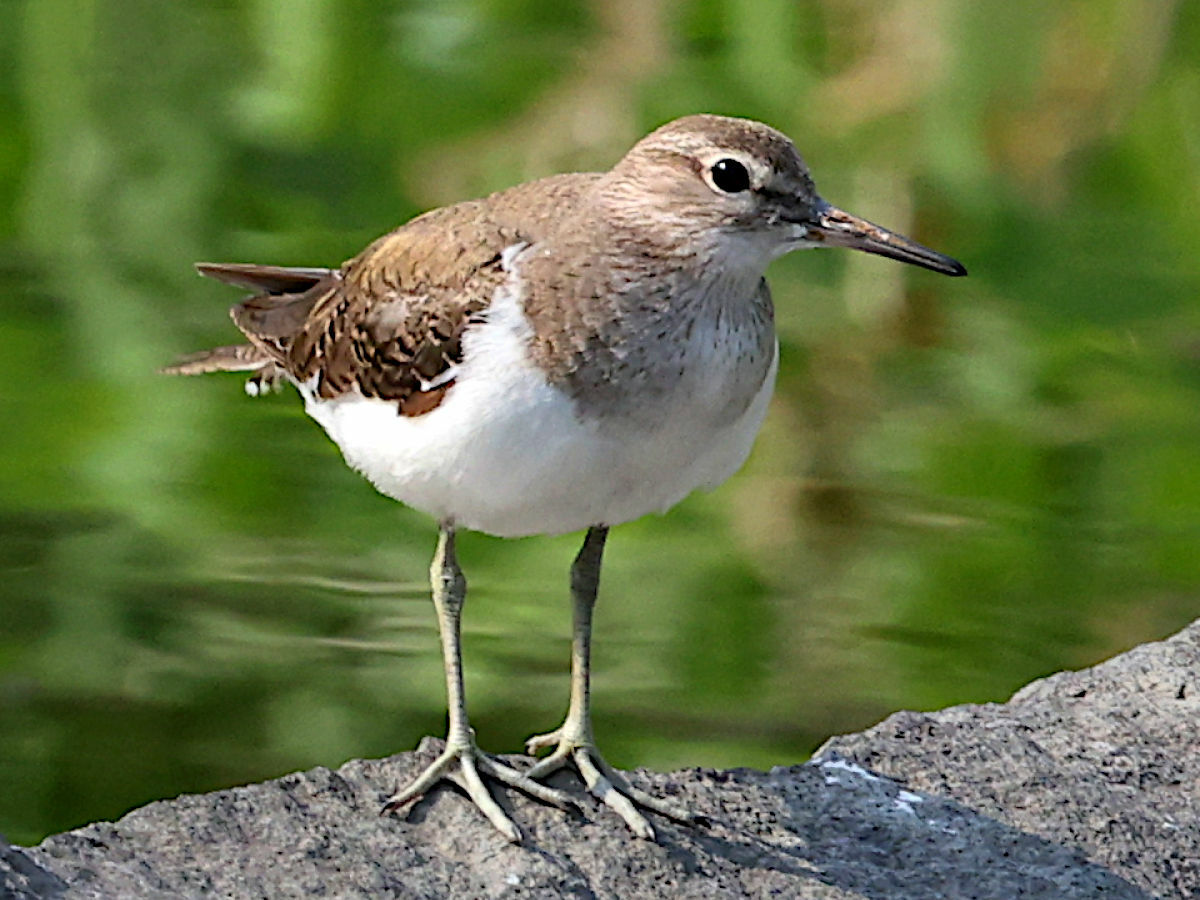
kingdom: Animalia
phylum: Chordata
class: Aves
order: Charadriiformes
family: Scolopacidae
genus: Actitis
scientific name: Actitis hypoleucos
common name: Common sandpiper
